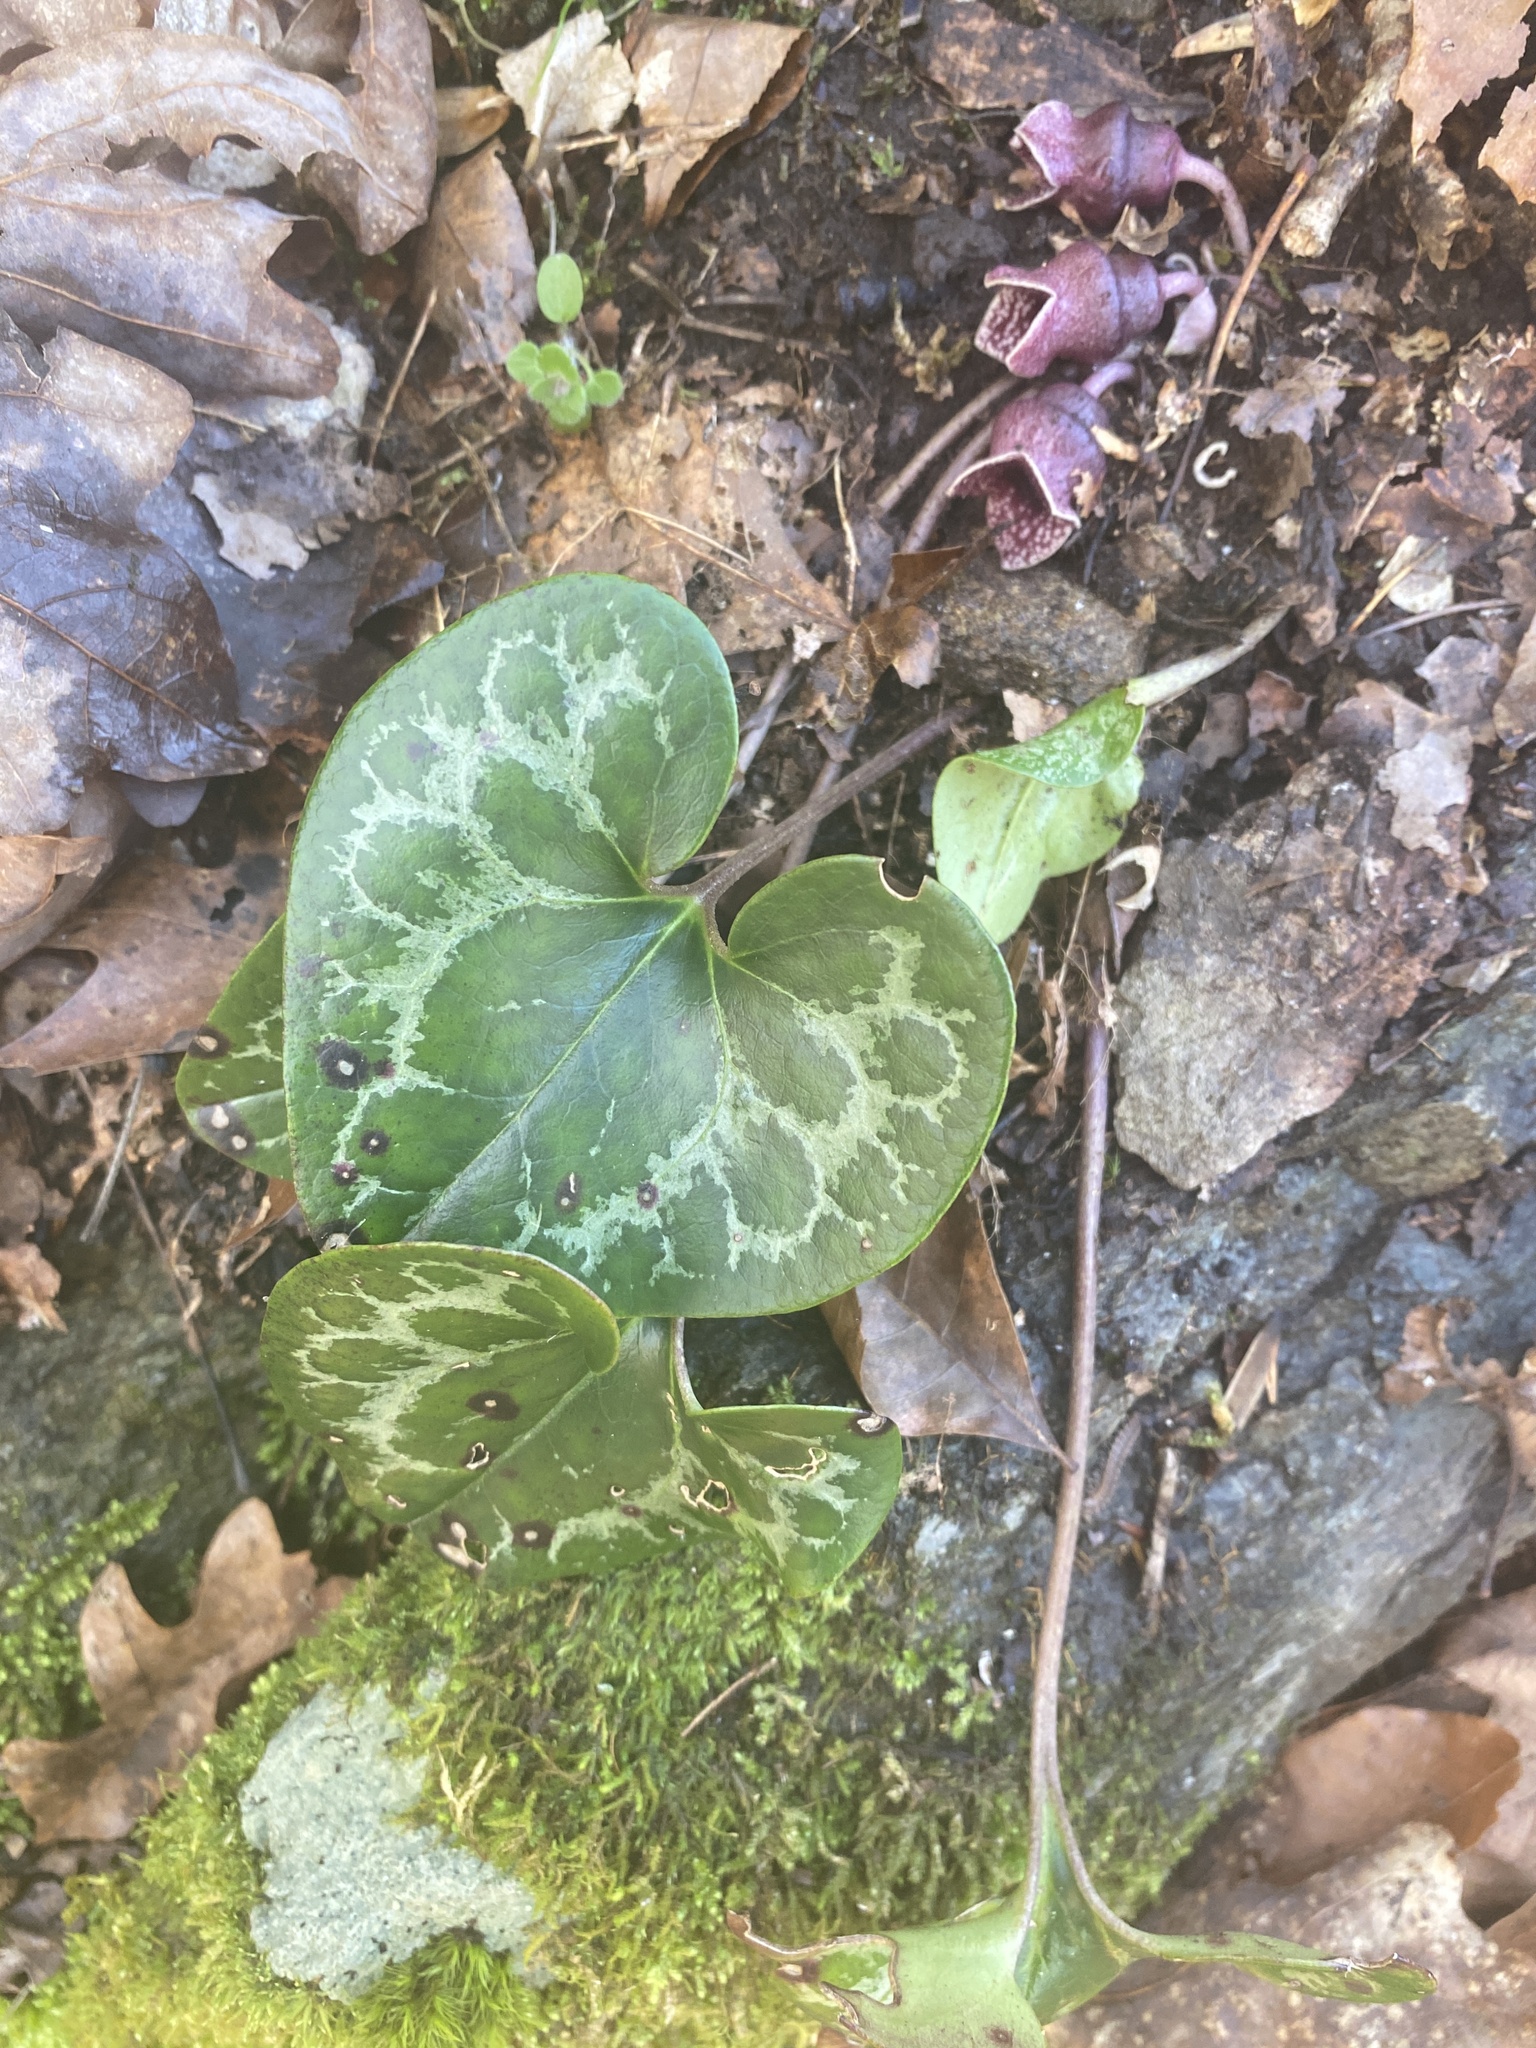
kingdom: Plantae
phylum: Tracheophyta
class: Magnoliopsida
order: Piperales
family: Aristolochiaceae
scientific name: Aristolochiaceae
